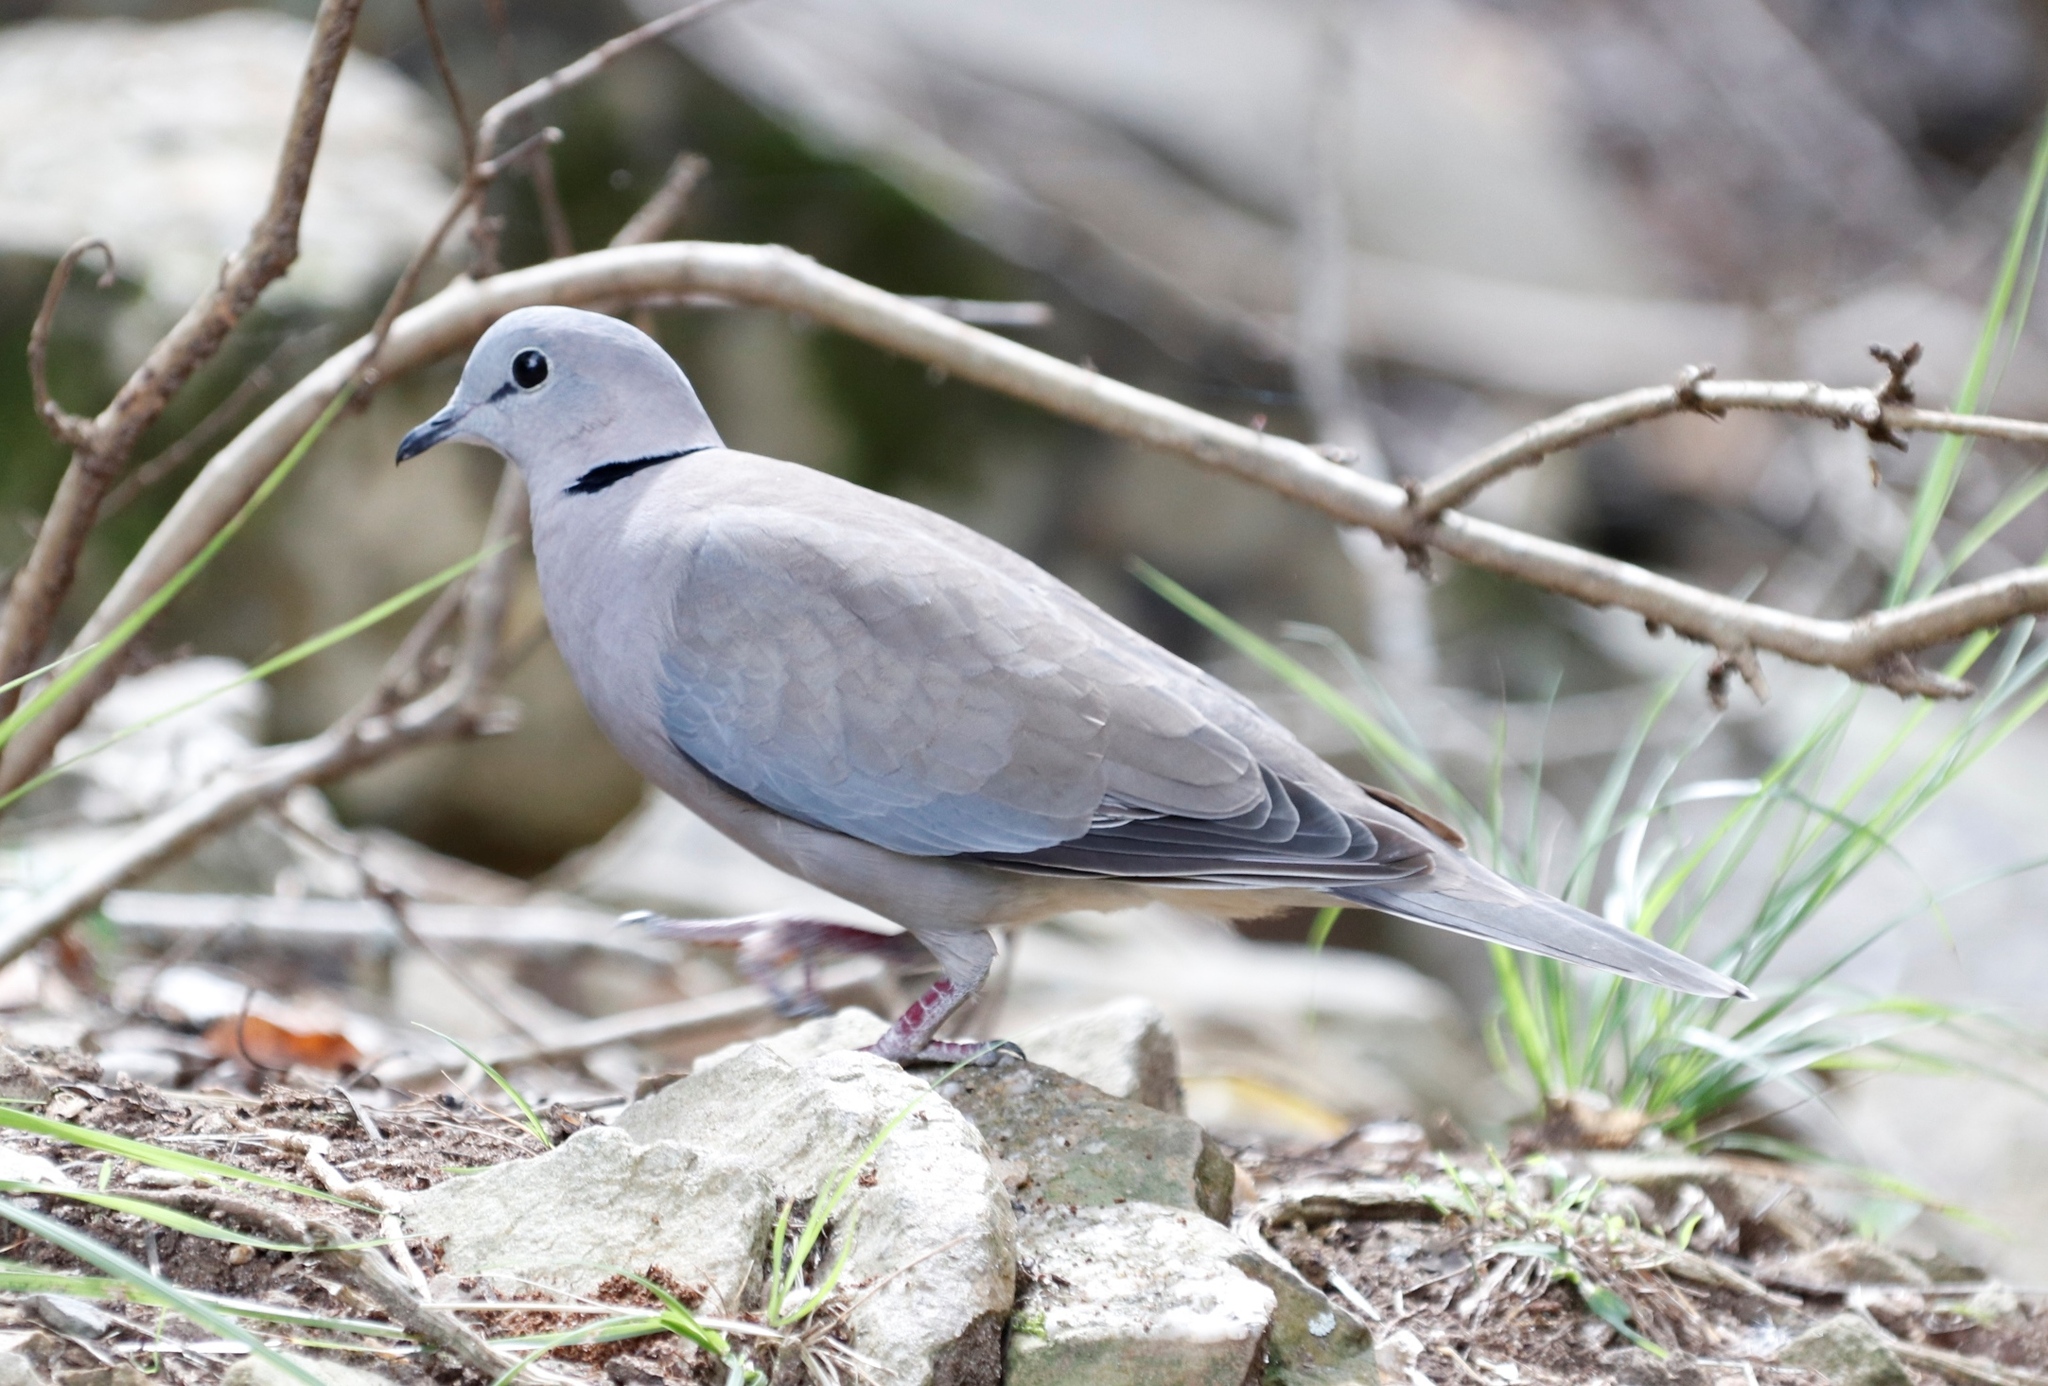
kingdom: Animalia
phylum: Chordata
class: Aves
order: Columbiformes
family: Columbidae
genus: Streptopelia
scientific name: Streptopelia capicola
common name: Ring-necked dove
